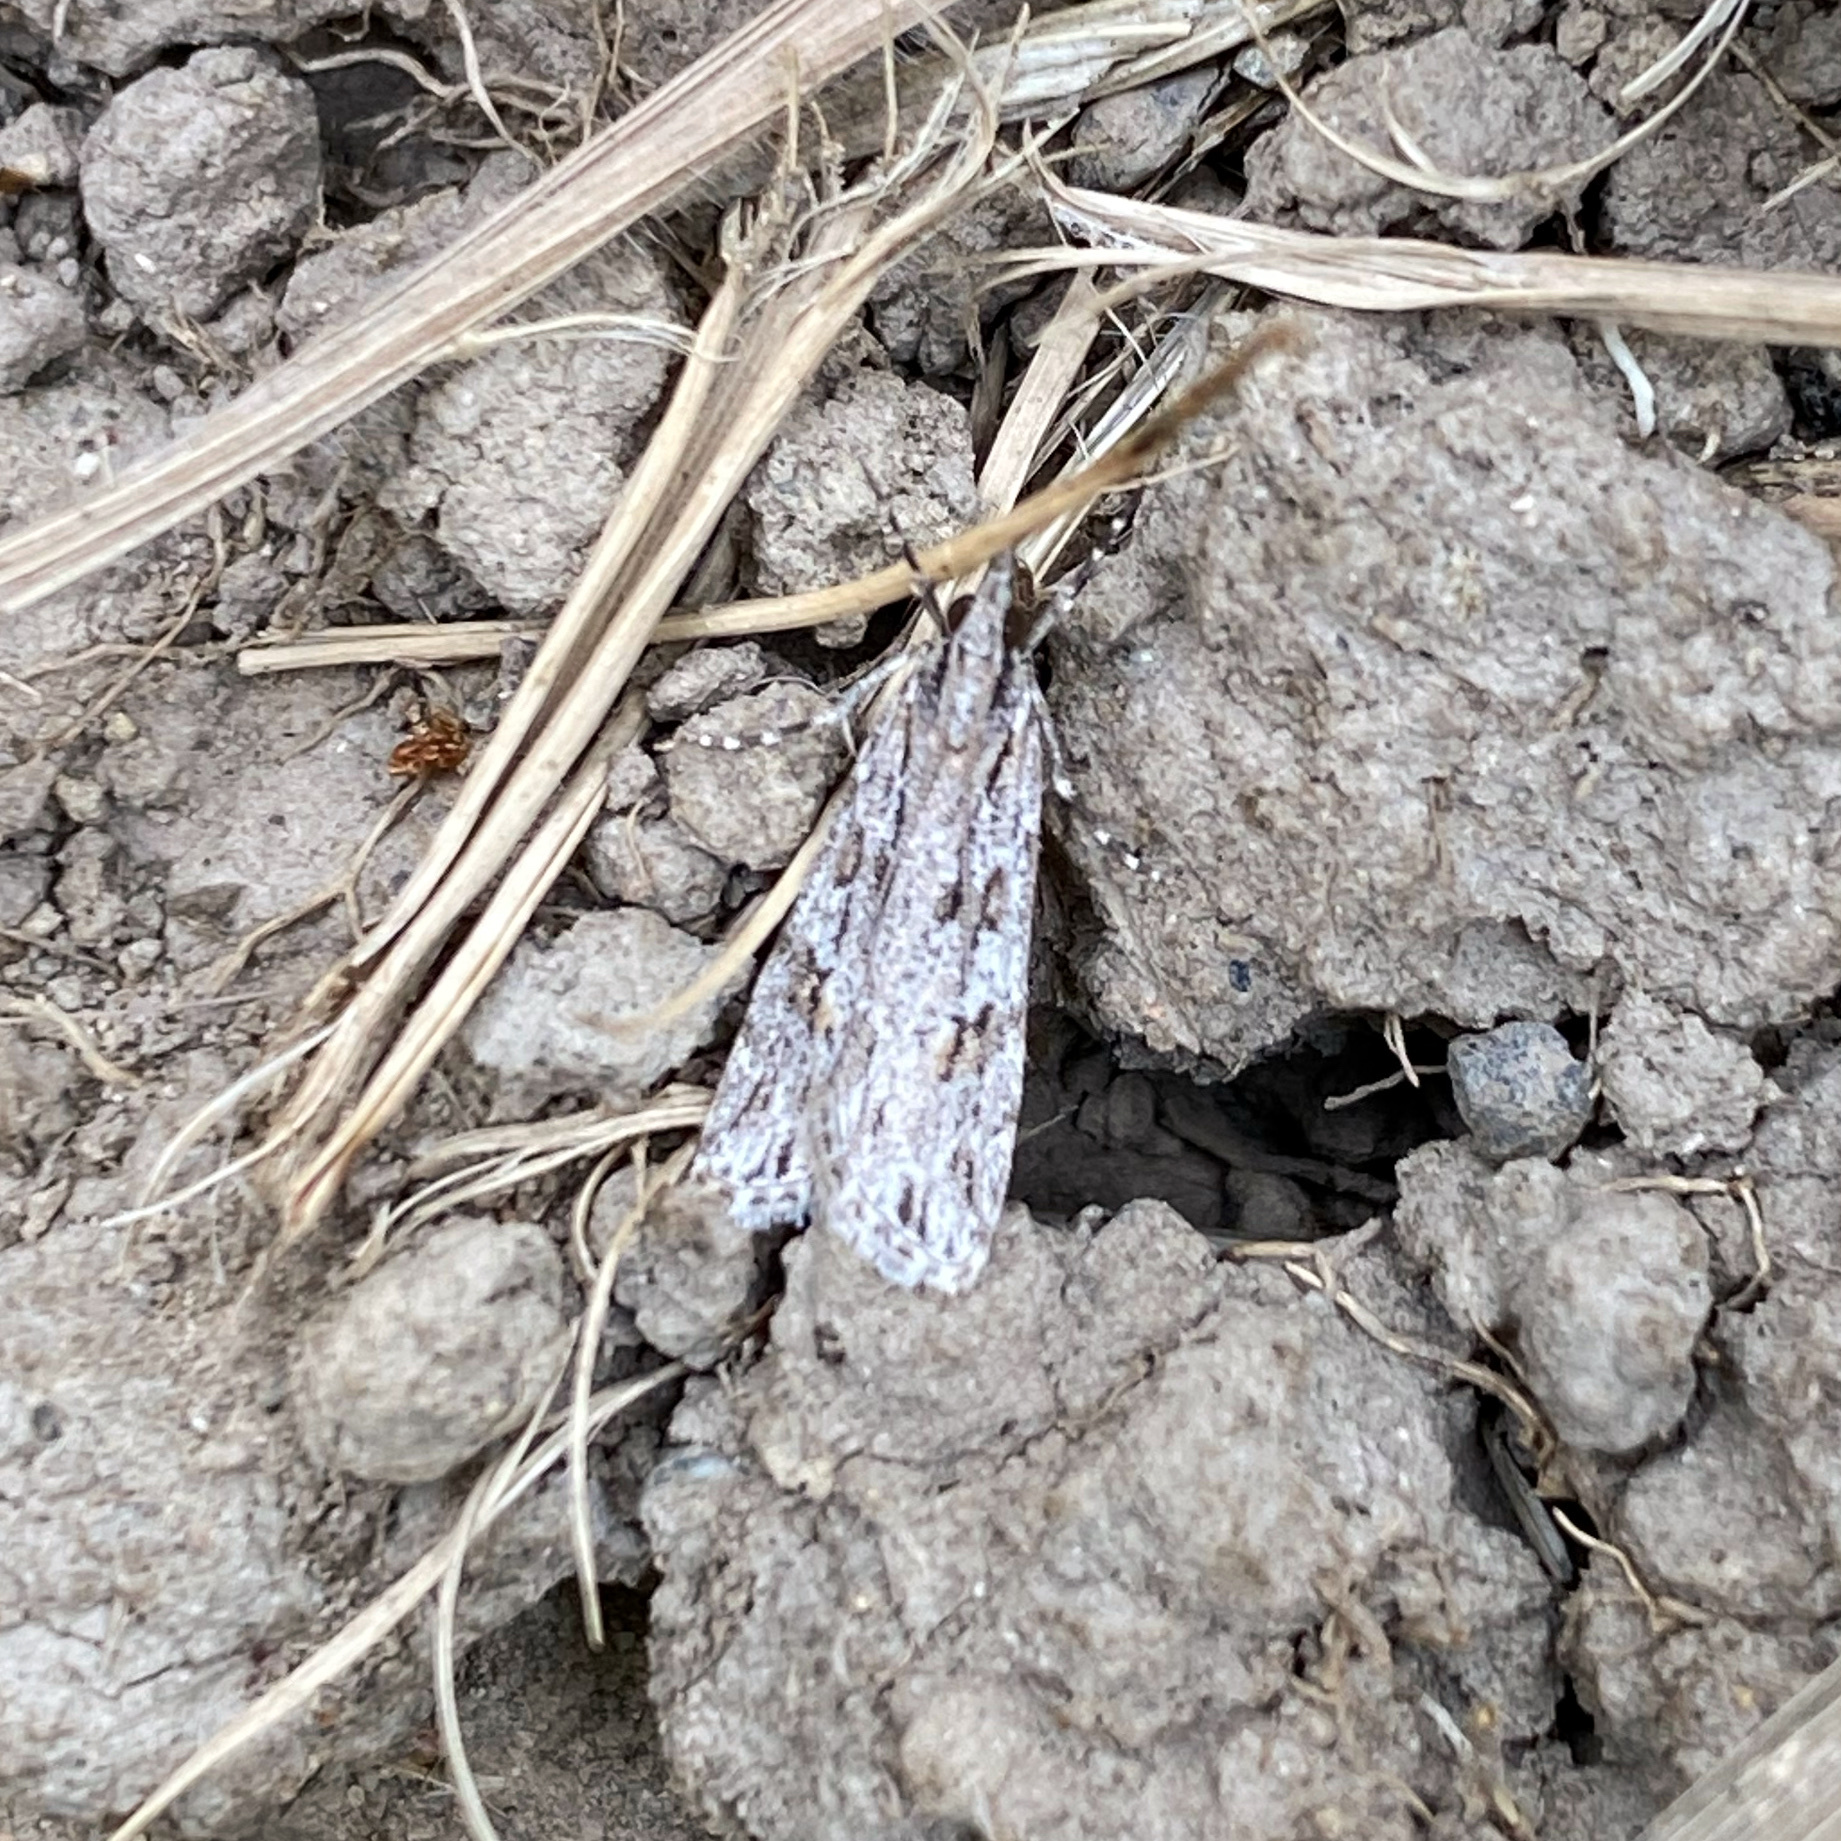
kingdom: Animalia
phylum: Arthropoda
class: Insecta
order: Lepidoptera
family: Crambidae
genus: Scoparia
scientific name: Scoparia chalicodes
